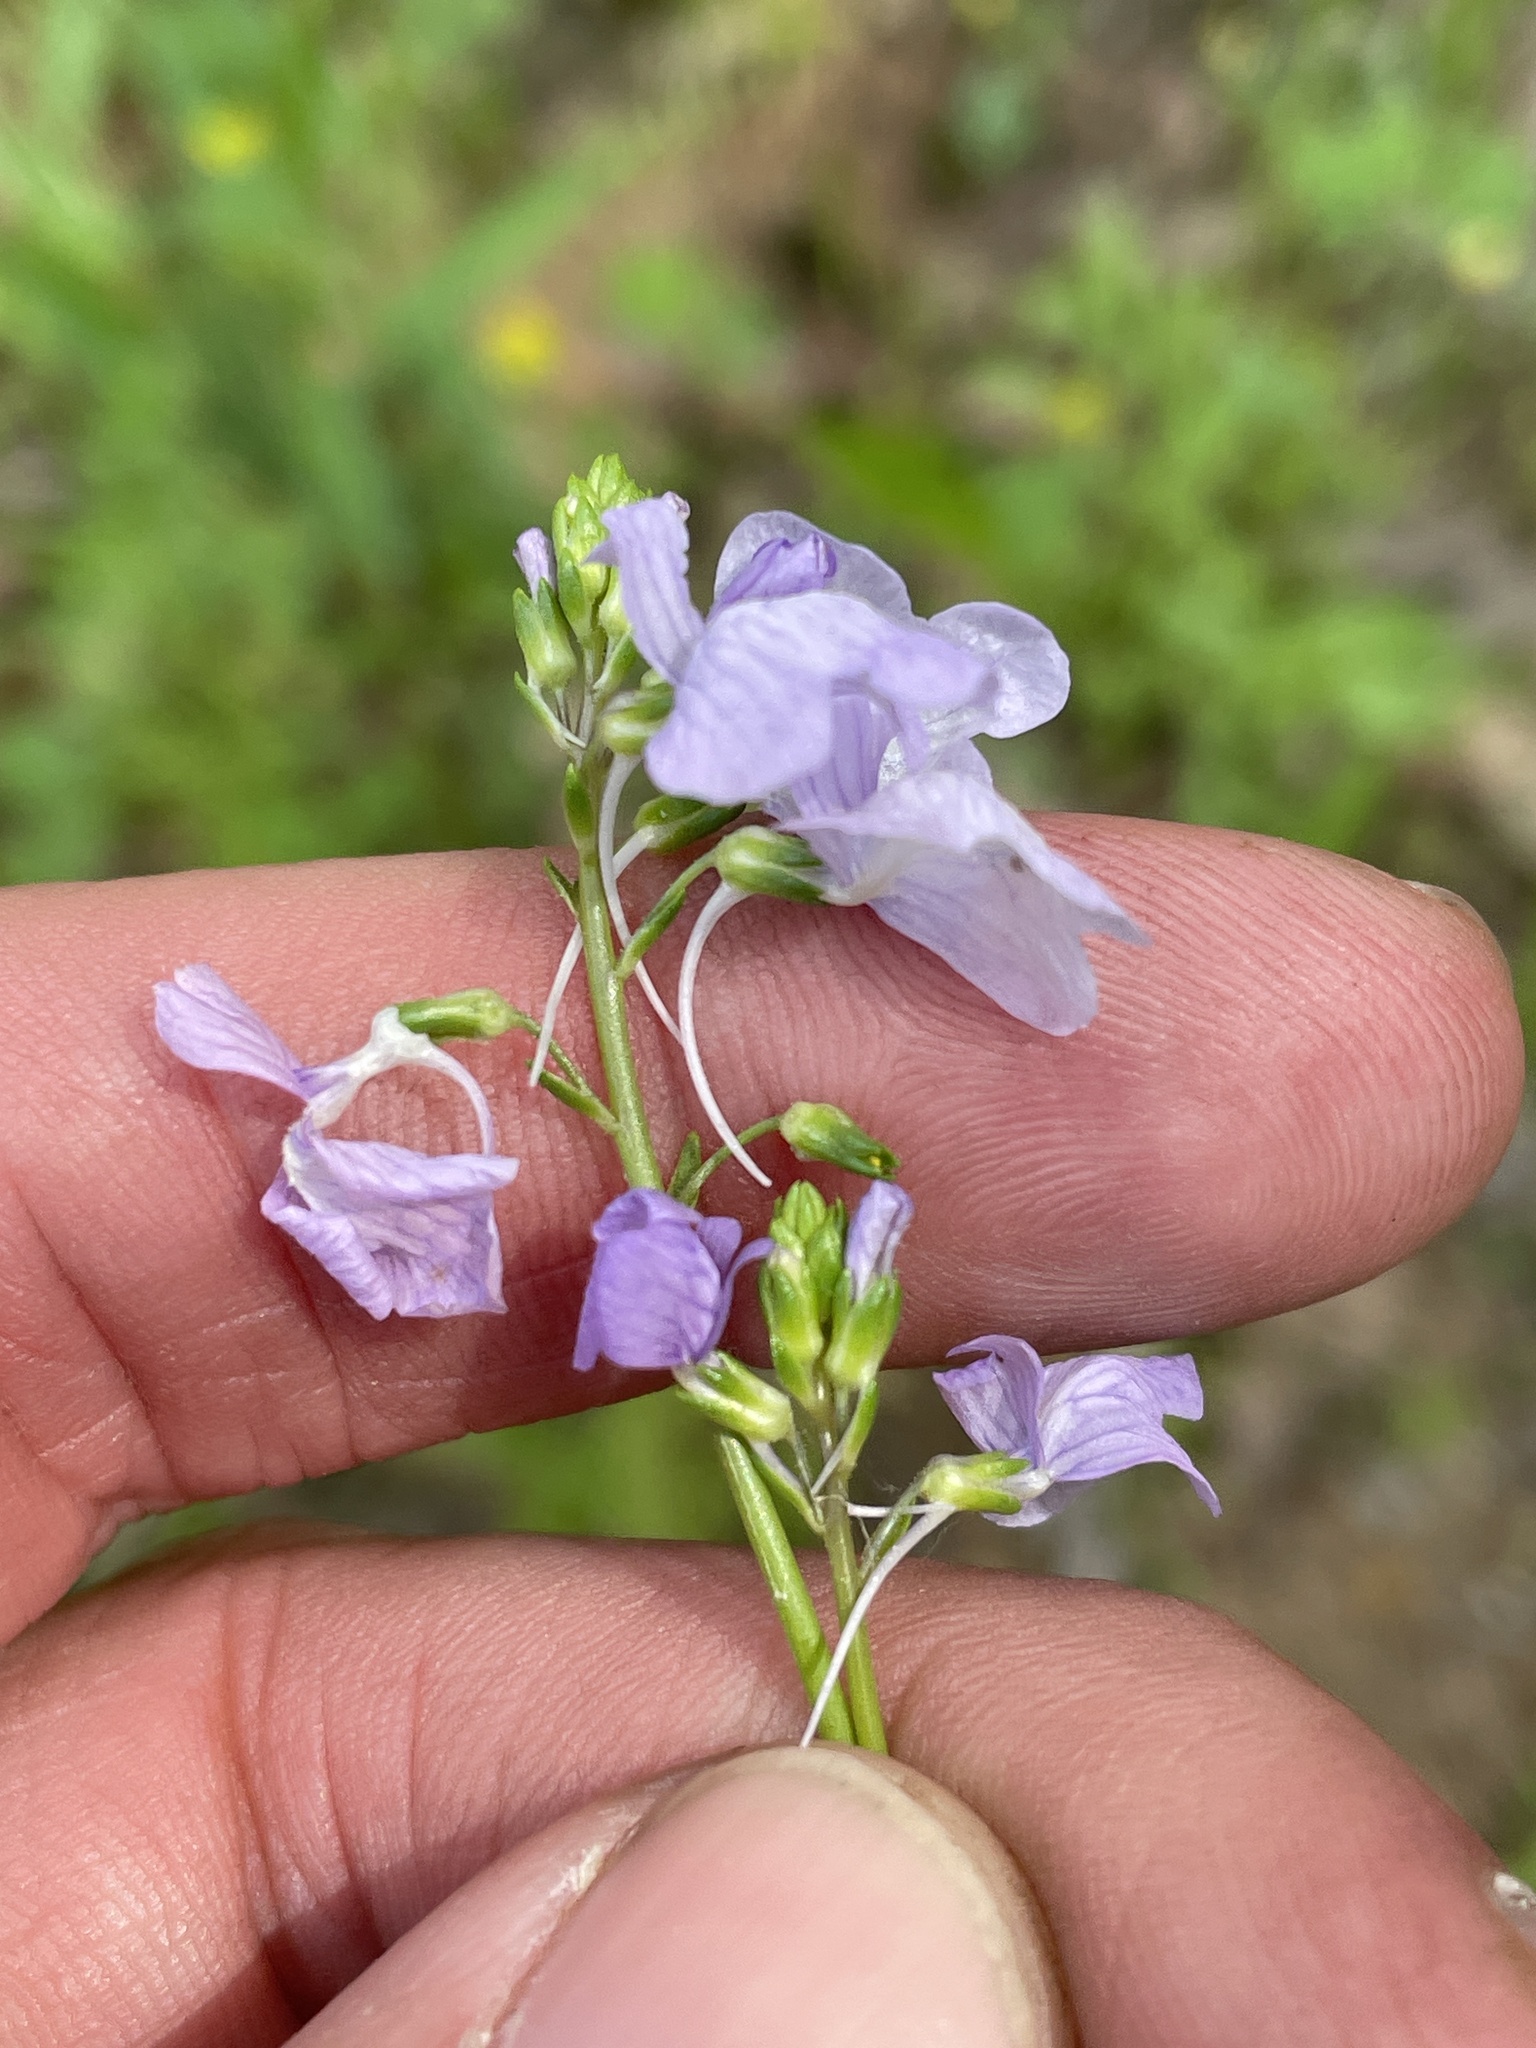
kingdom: Plantae
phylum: Tracheophyta
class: Magnoliopsida
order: Lamiales
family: Plantaginaceae
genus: Nuttallanthus
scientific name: Nuttallanthus texanus
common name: Texas toadflax
